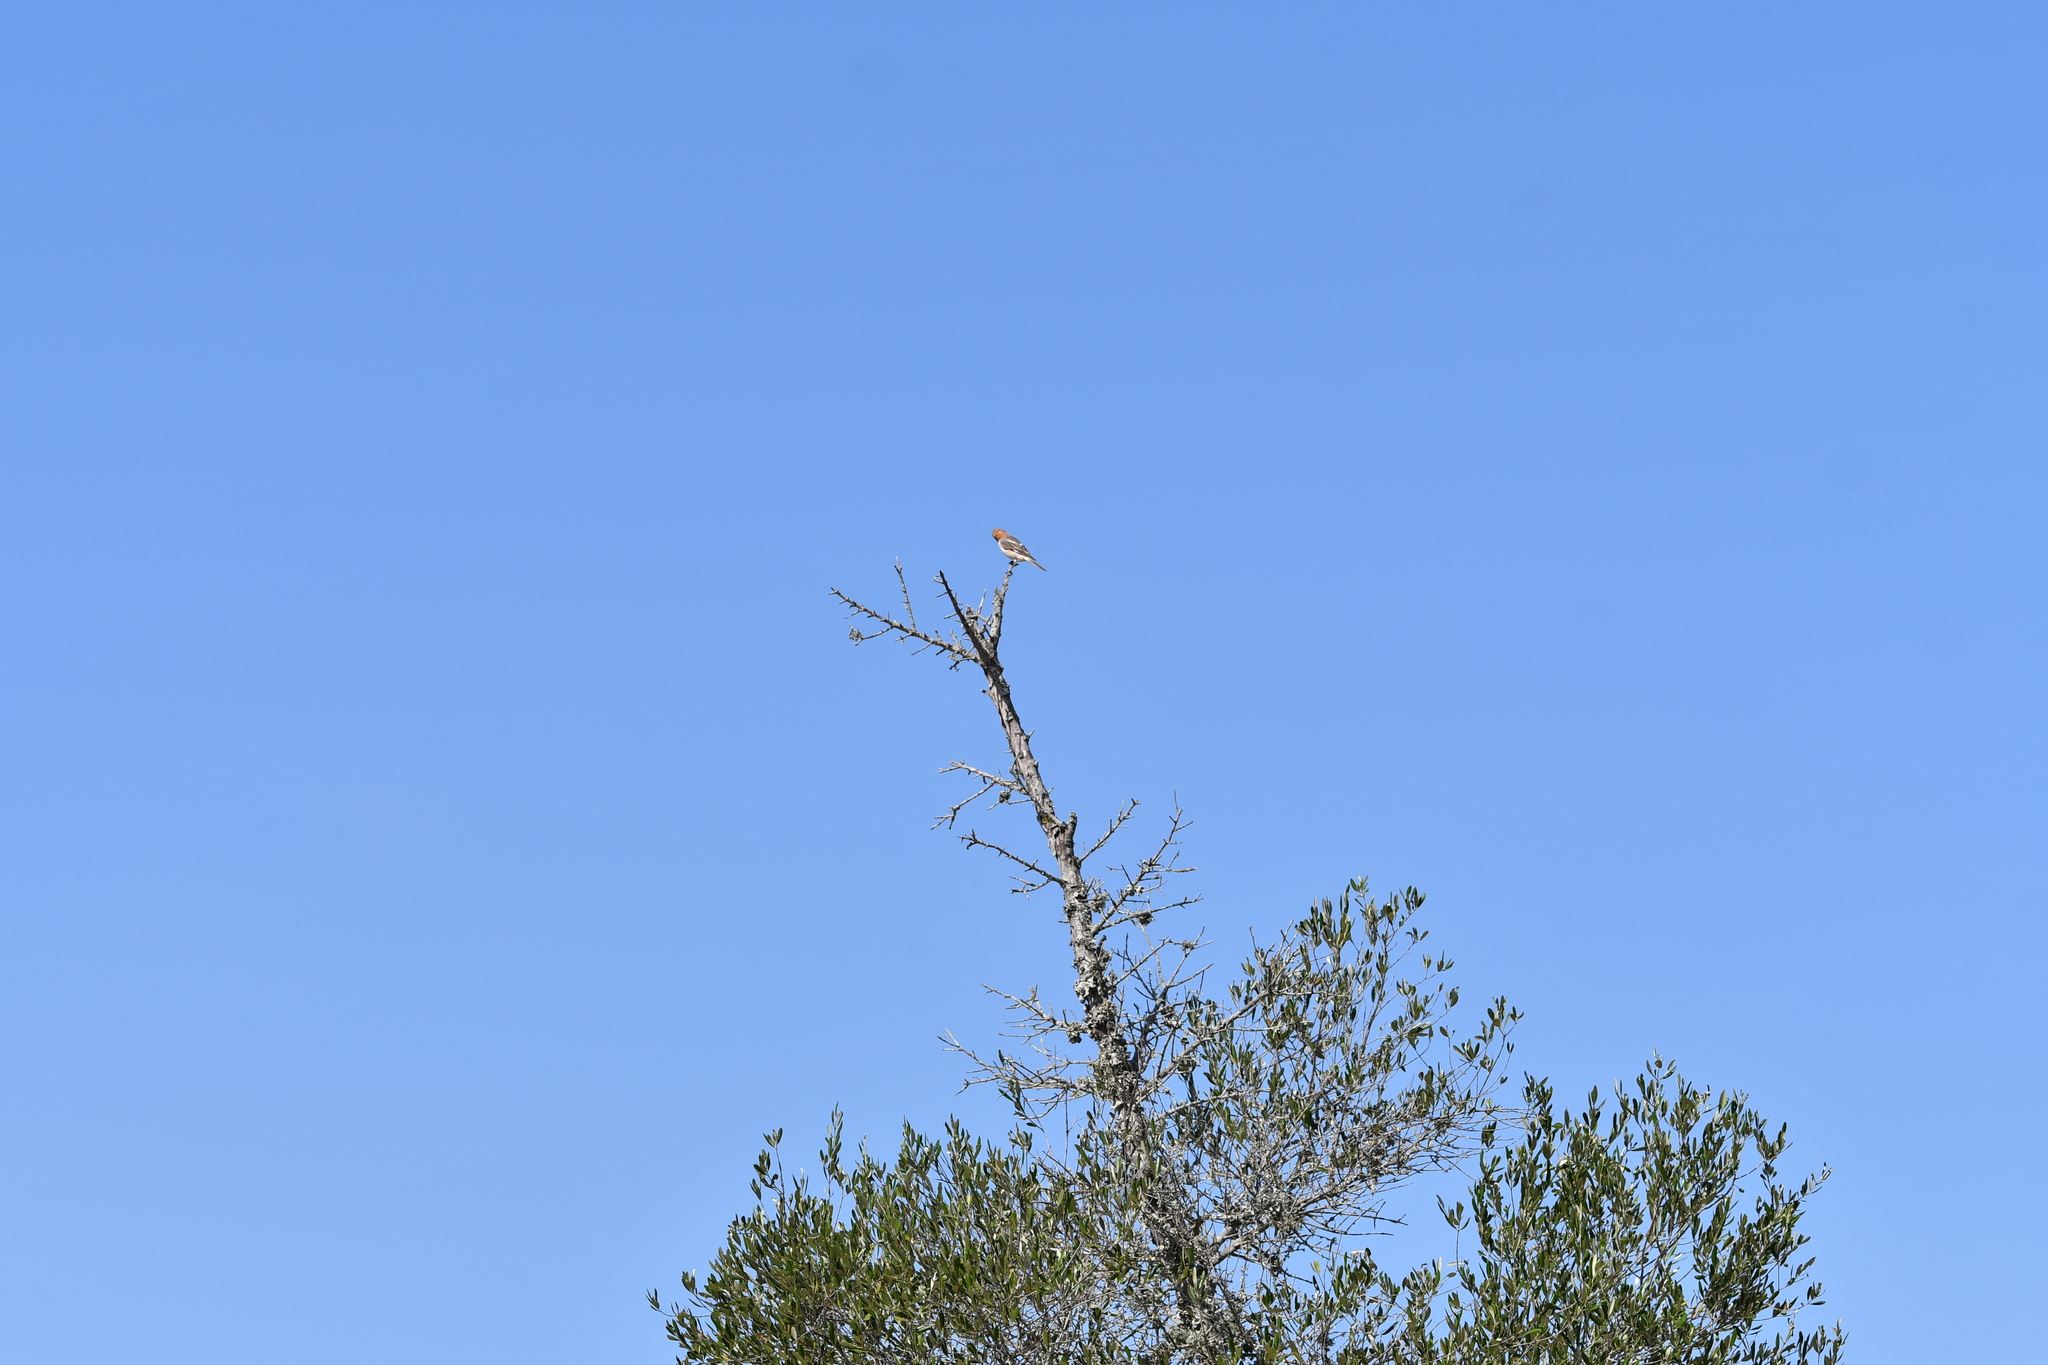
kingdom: Animalia
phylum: Chordata
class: Aves
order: Passeriformes
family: Laniidae
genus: Lanius
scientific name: Lanius senator
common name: Woodchat shrike
